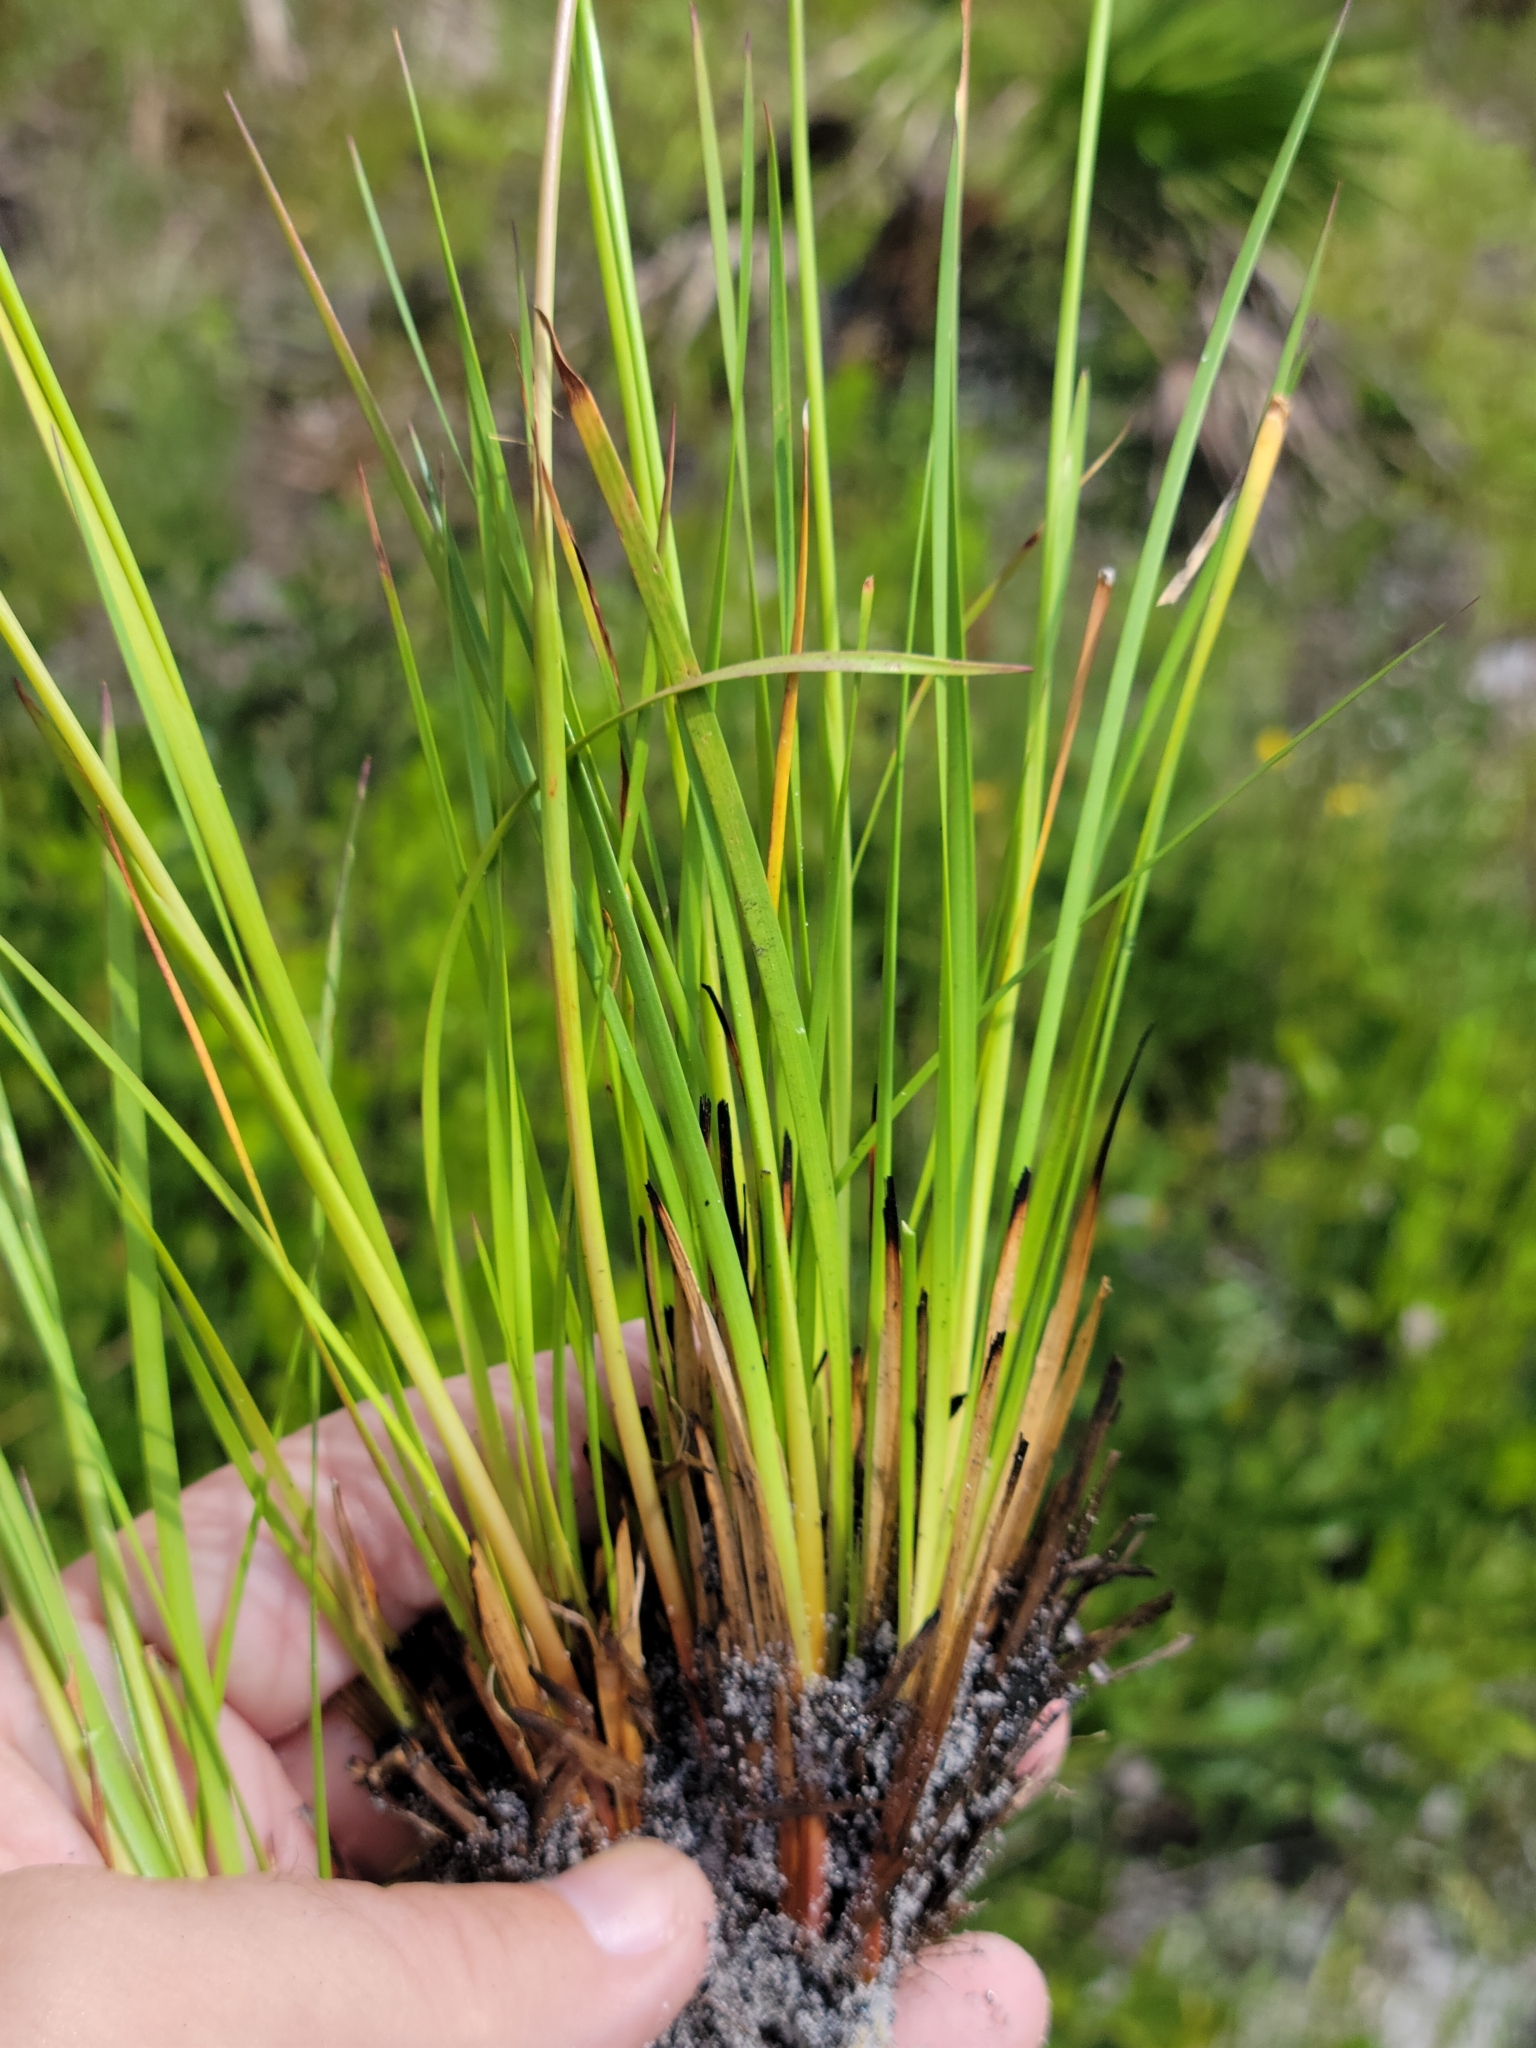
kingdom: Plantae
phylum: Tracheophyta
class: Liliopsida
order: Poales
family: Xyridaceae
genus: Xyris
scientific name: Xyris elliottii
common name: Elliot's yelloweyed grass
